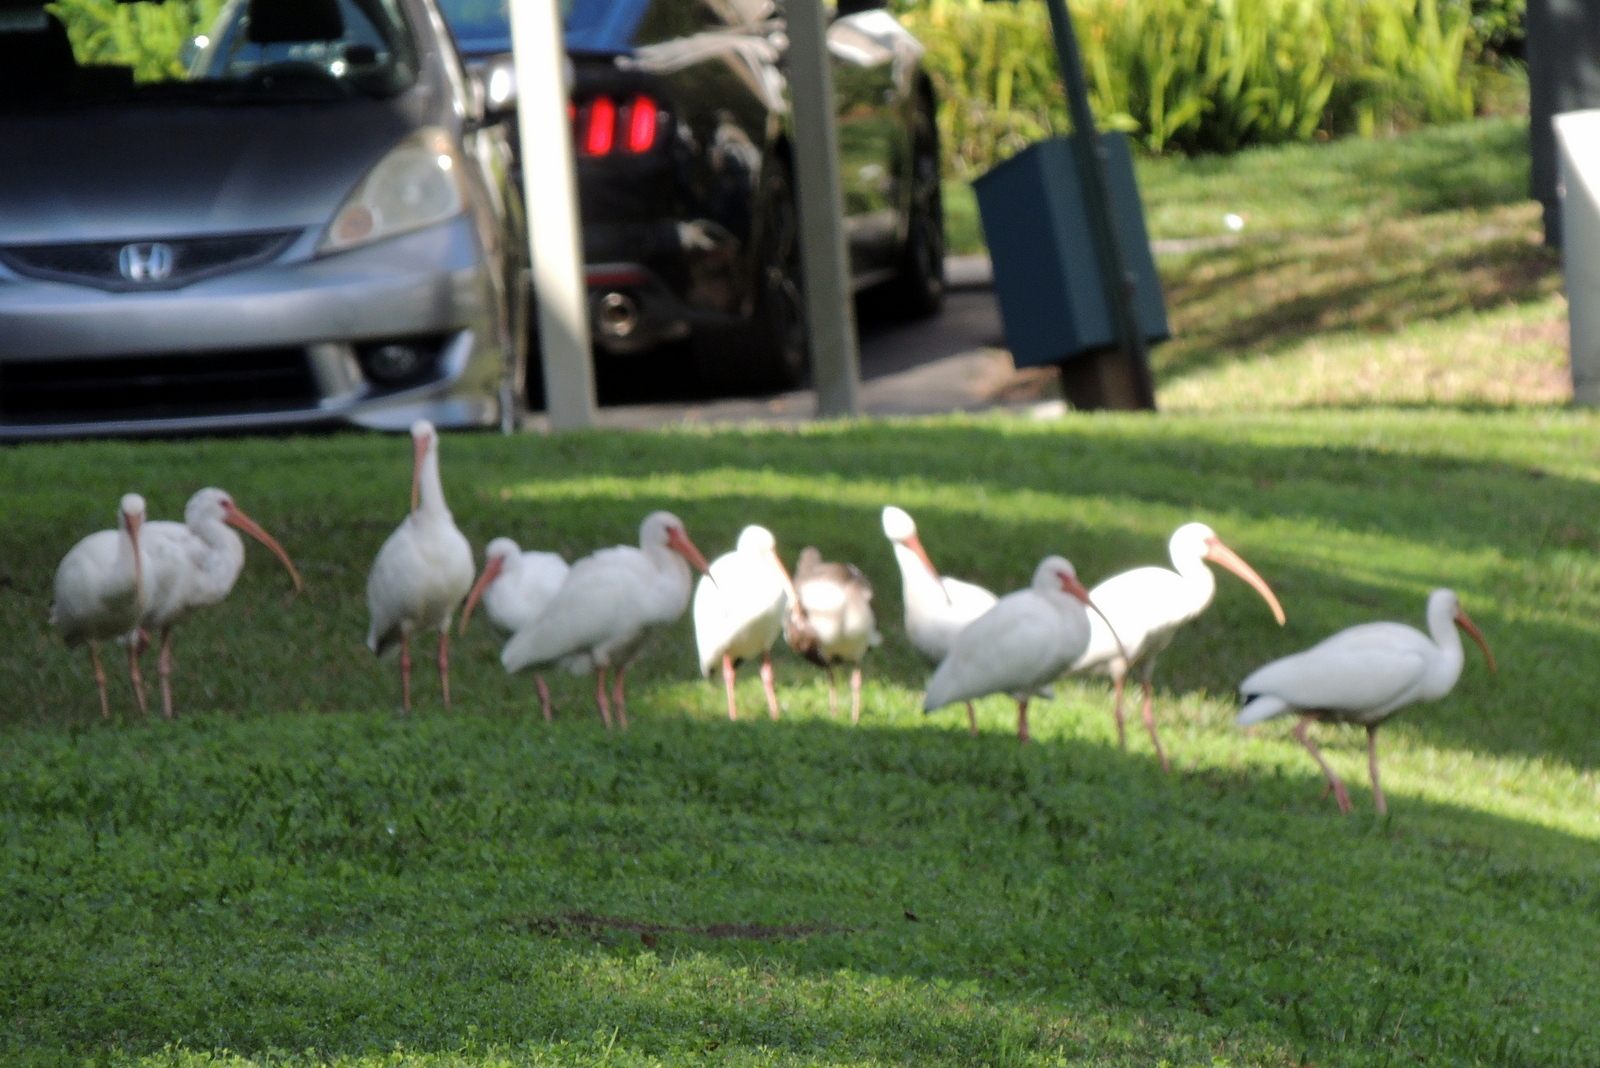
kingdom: Animalia
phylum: Chordata
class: Aves
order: Pelecaniformes
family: Threskiornithidae
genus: Eudocimus
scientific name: Eudocimus albus
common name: White ibis
